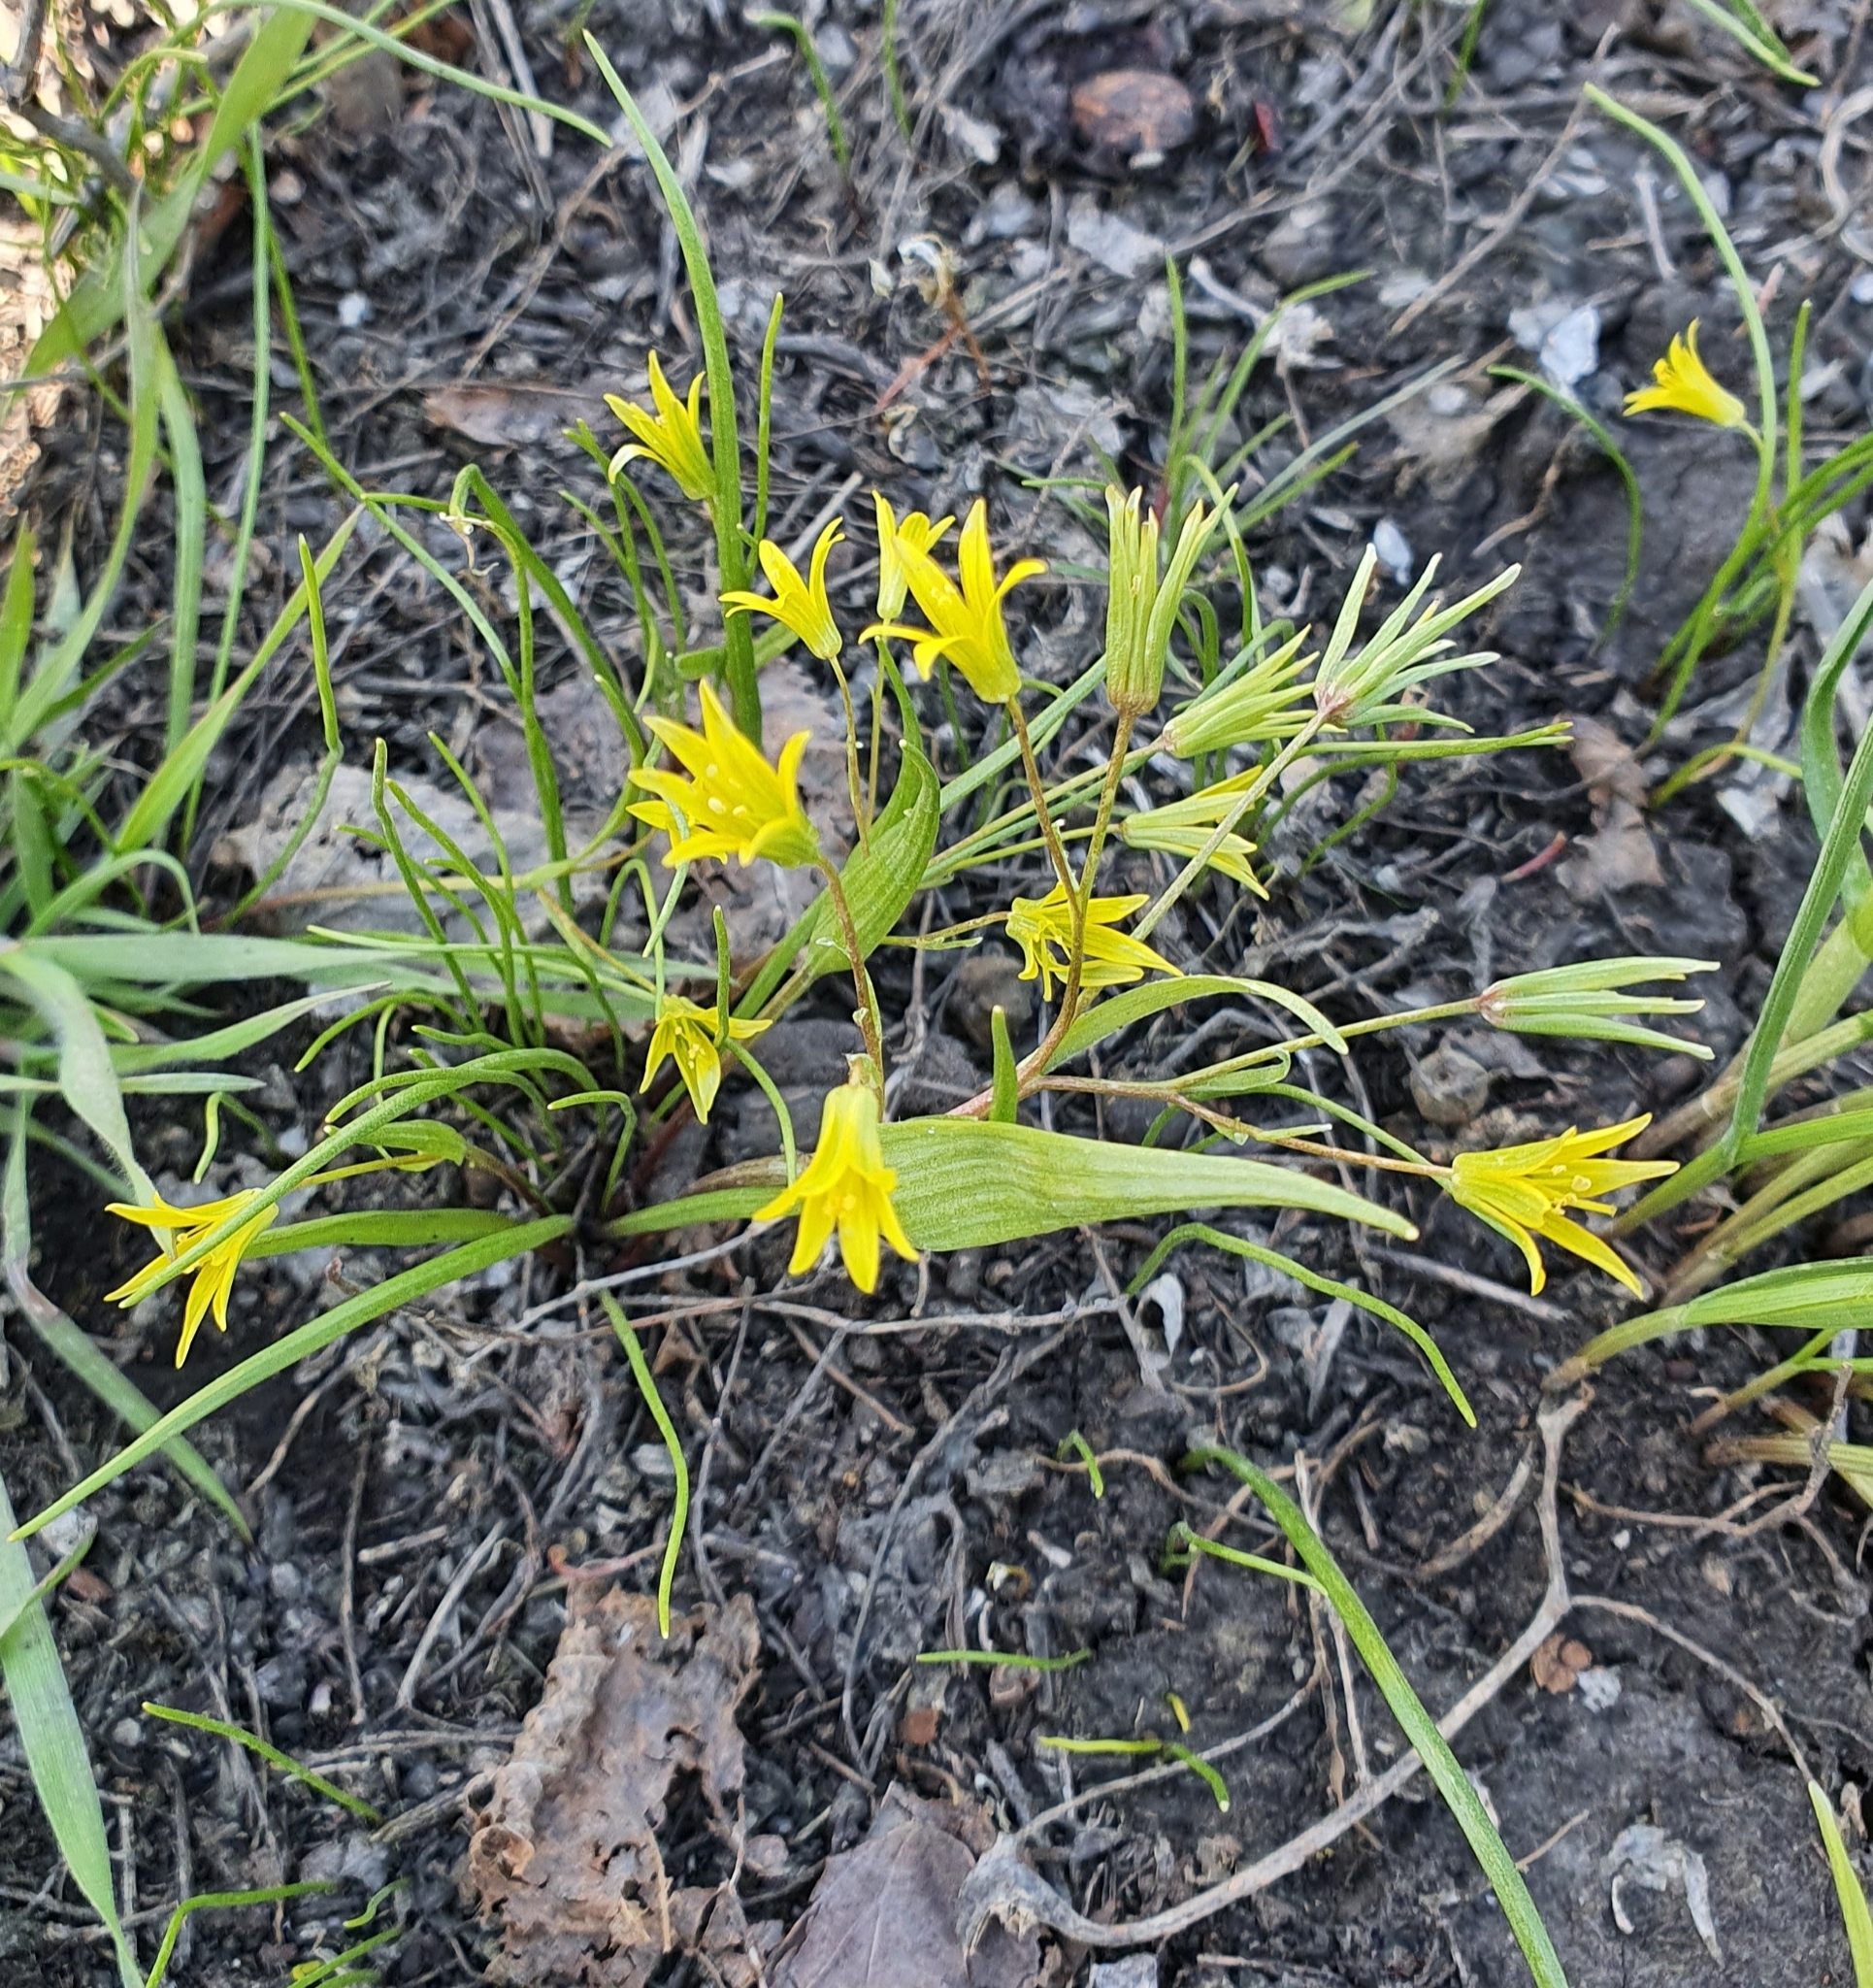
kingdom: Plantae
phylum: Tracheophyta
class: Liliopsida
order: Liliales
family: Liliaceae
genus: Gagea
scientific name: Gagea minima
